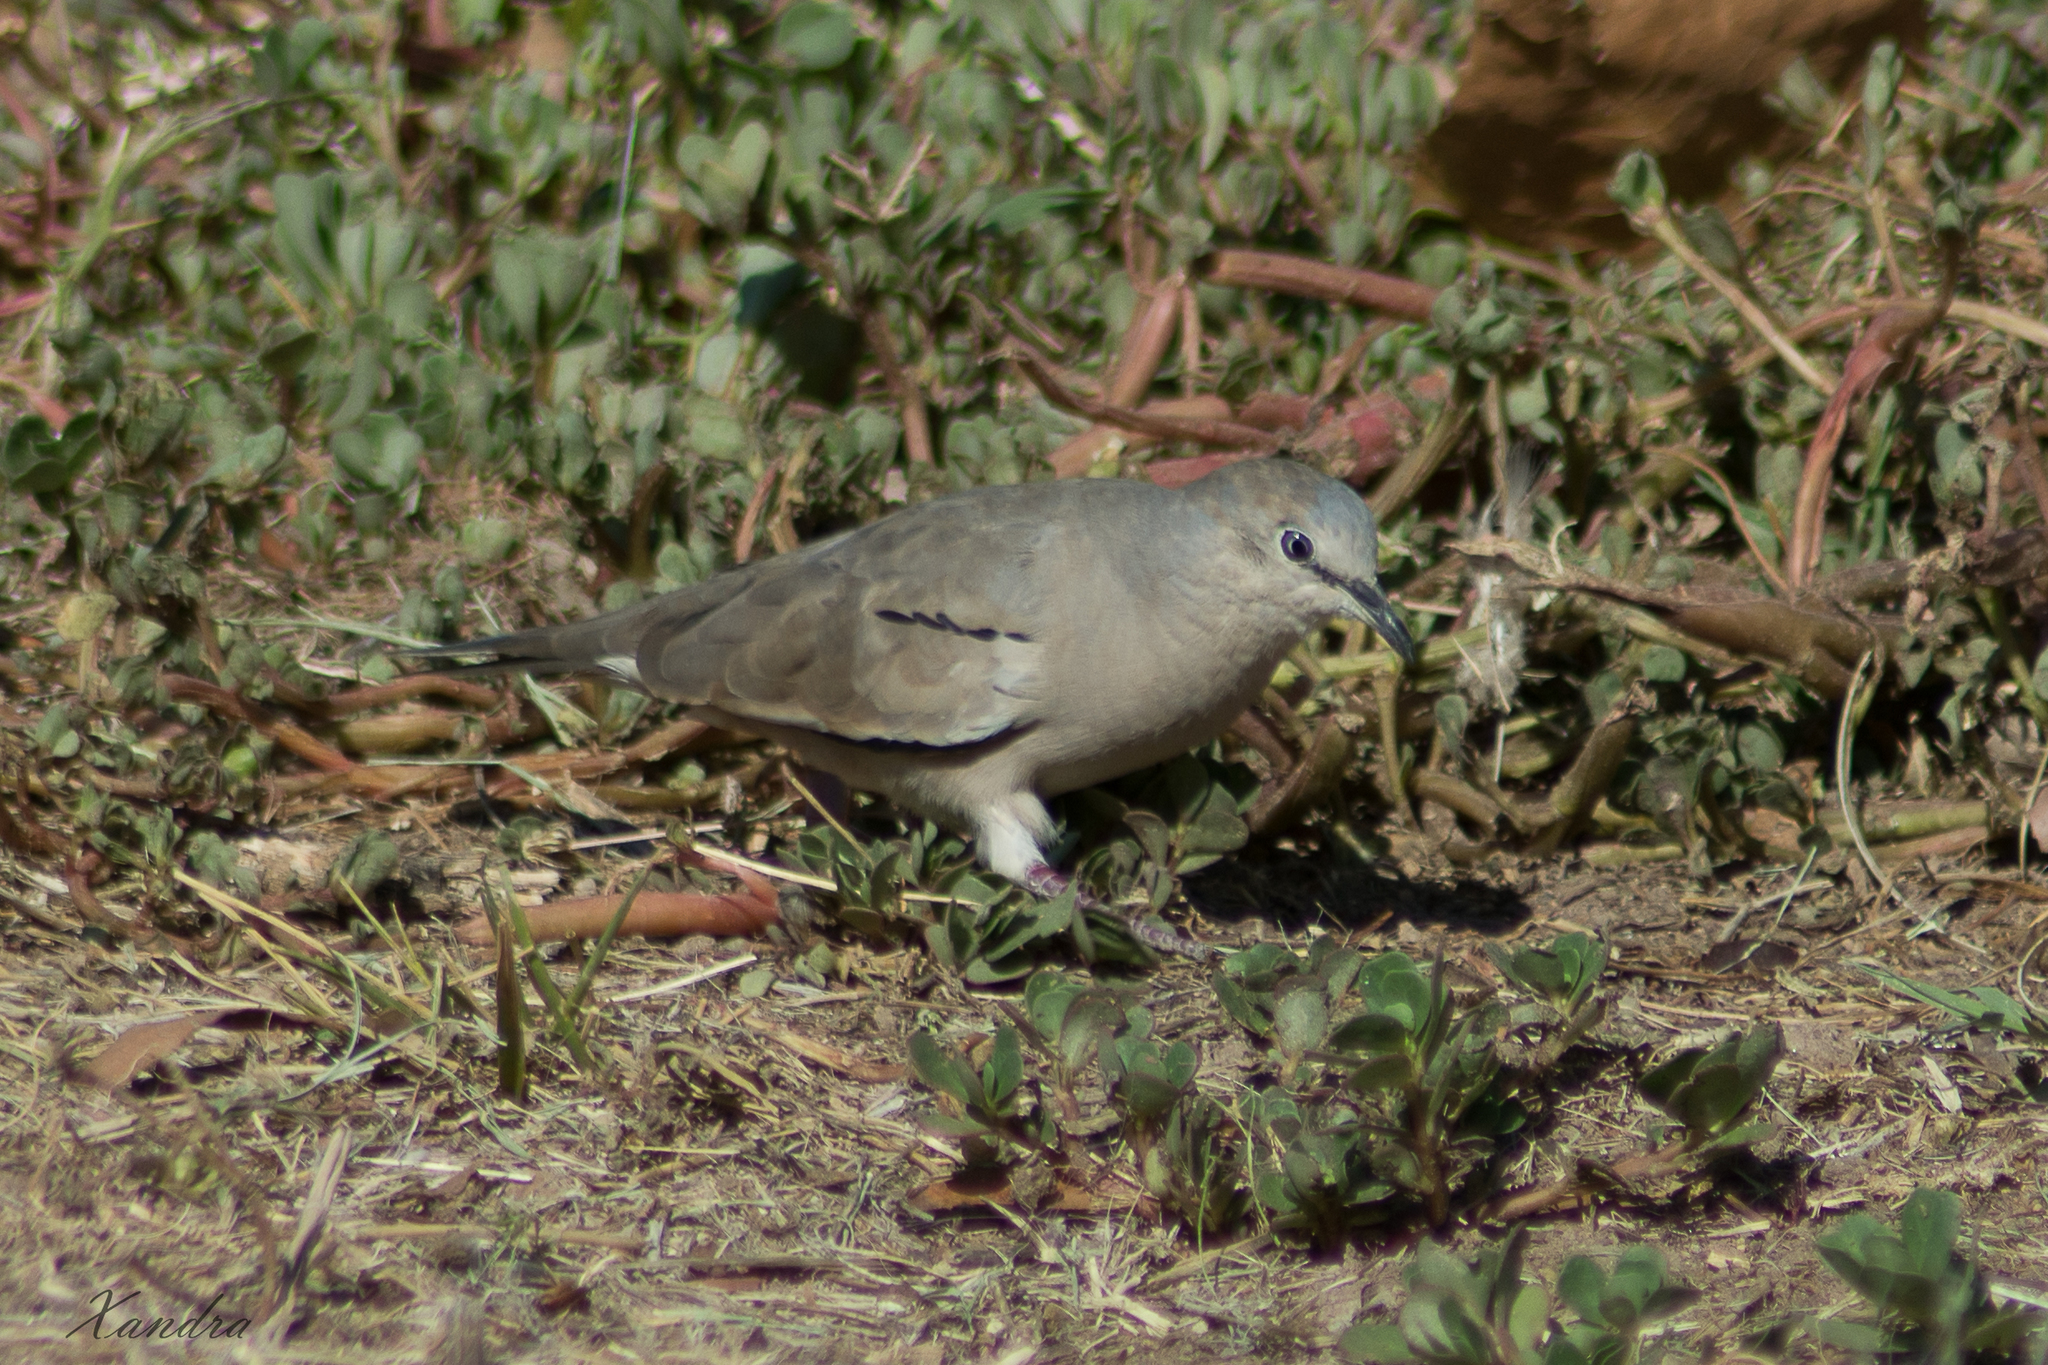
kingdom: Animalia
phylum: Chordata
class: Aves
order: Columbiformes
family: Columbidae
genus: Columbina
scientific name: Columbina picui
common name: Picui ground dove
